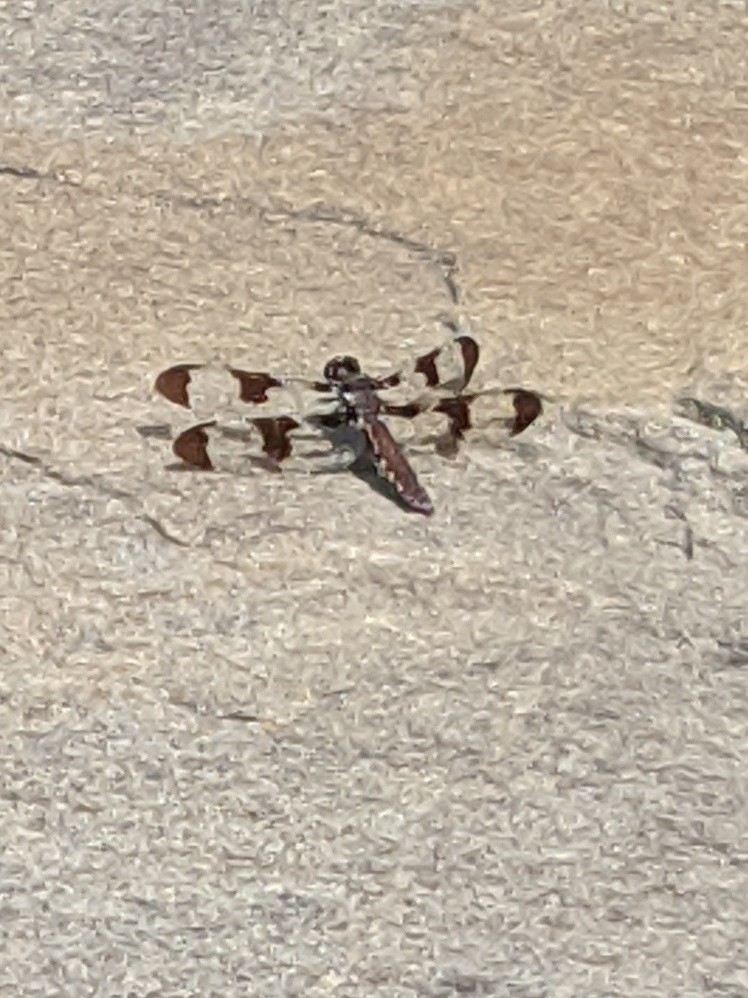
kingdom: Animalia
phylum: Arthropoda
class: Insecta
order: Odonata
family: Libellulidae
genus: Plathemis
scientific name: Plathemis lydia
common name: Common whitetail
